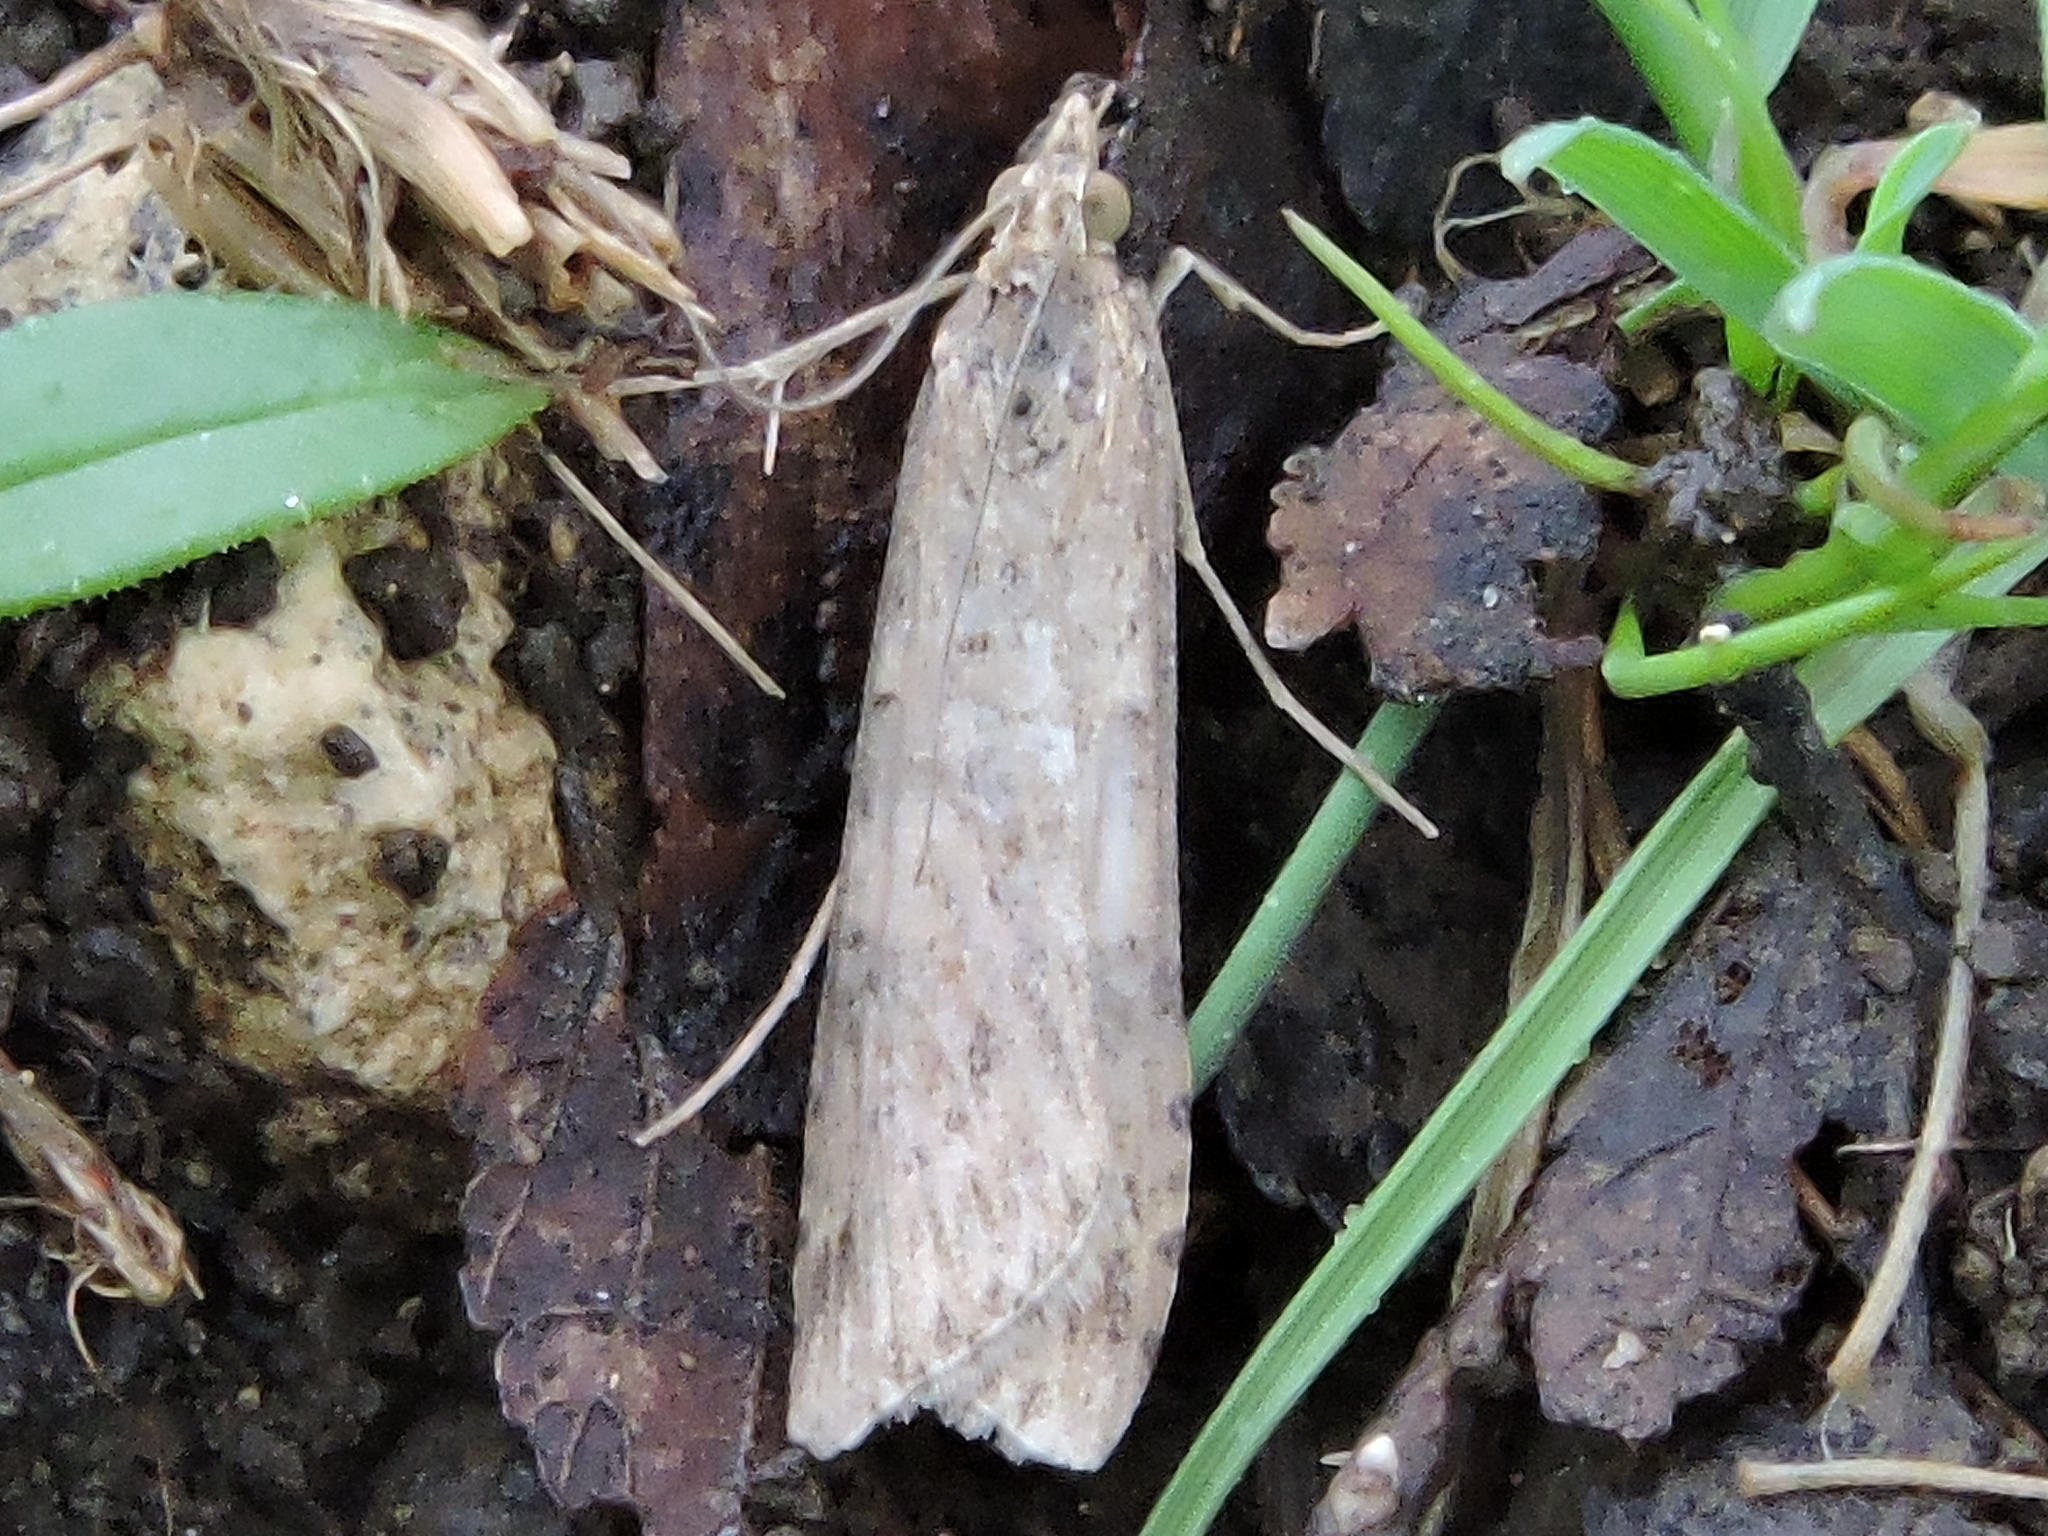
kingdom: Animalia
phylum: Arthropoda
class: Insecta
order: Lepidoptera
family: Crambidae
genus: Nomophila
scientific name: Nomophila nearctica
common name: American rush veneer
